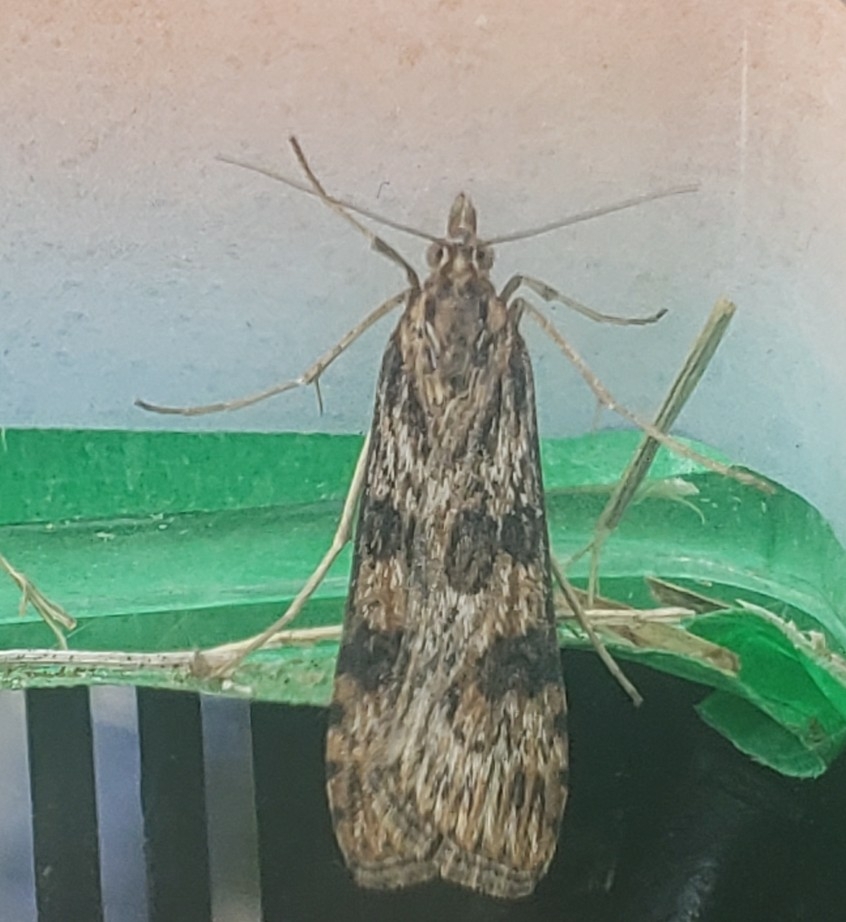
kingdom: Animalia
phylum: Arthropoda
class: Insecta
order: Lepidoptera
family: Crambidae
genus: Nomophila
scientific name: Nomophila nearctica
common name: American rush veneer
